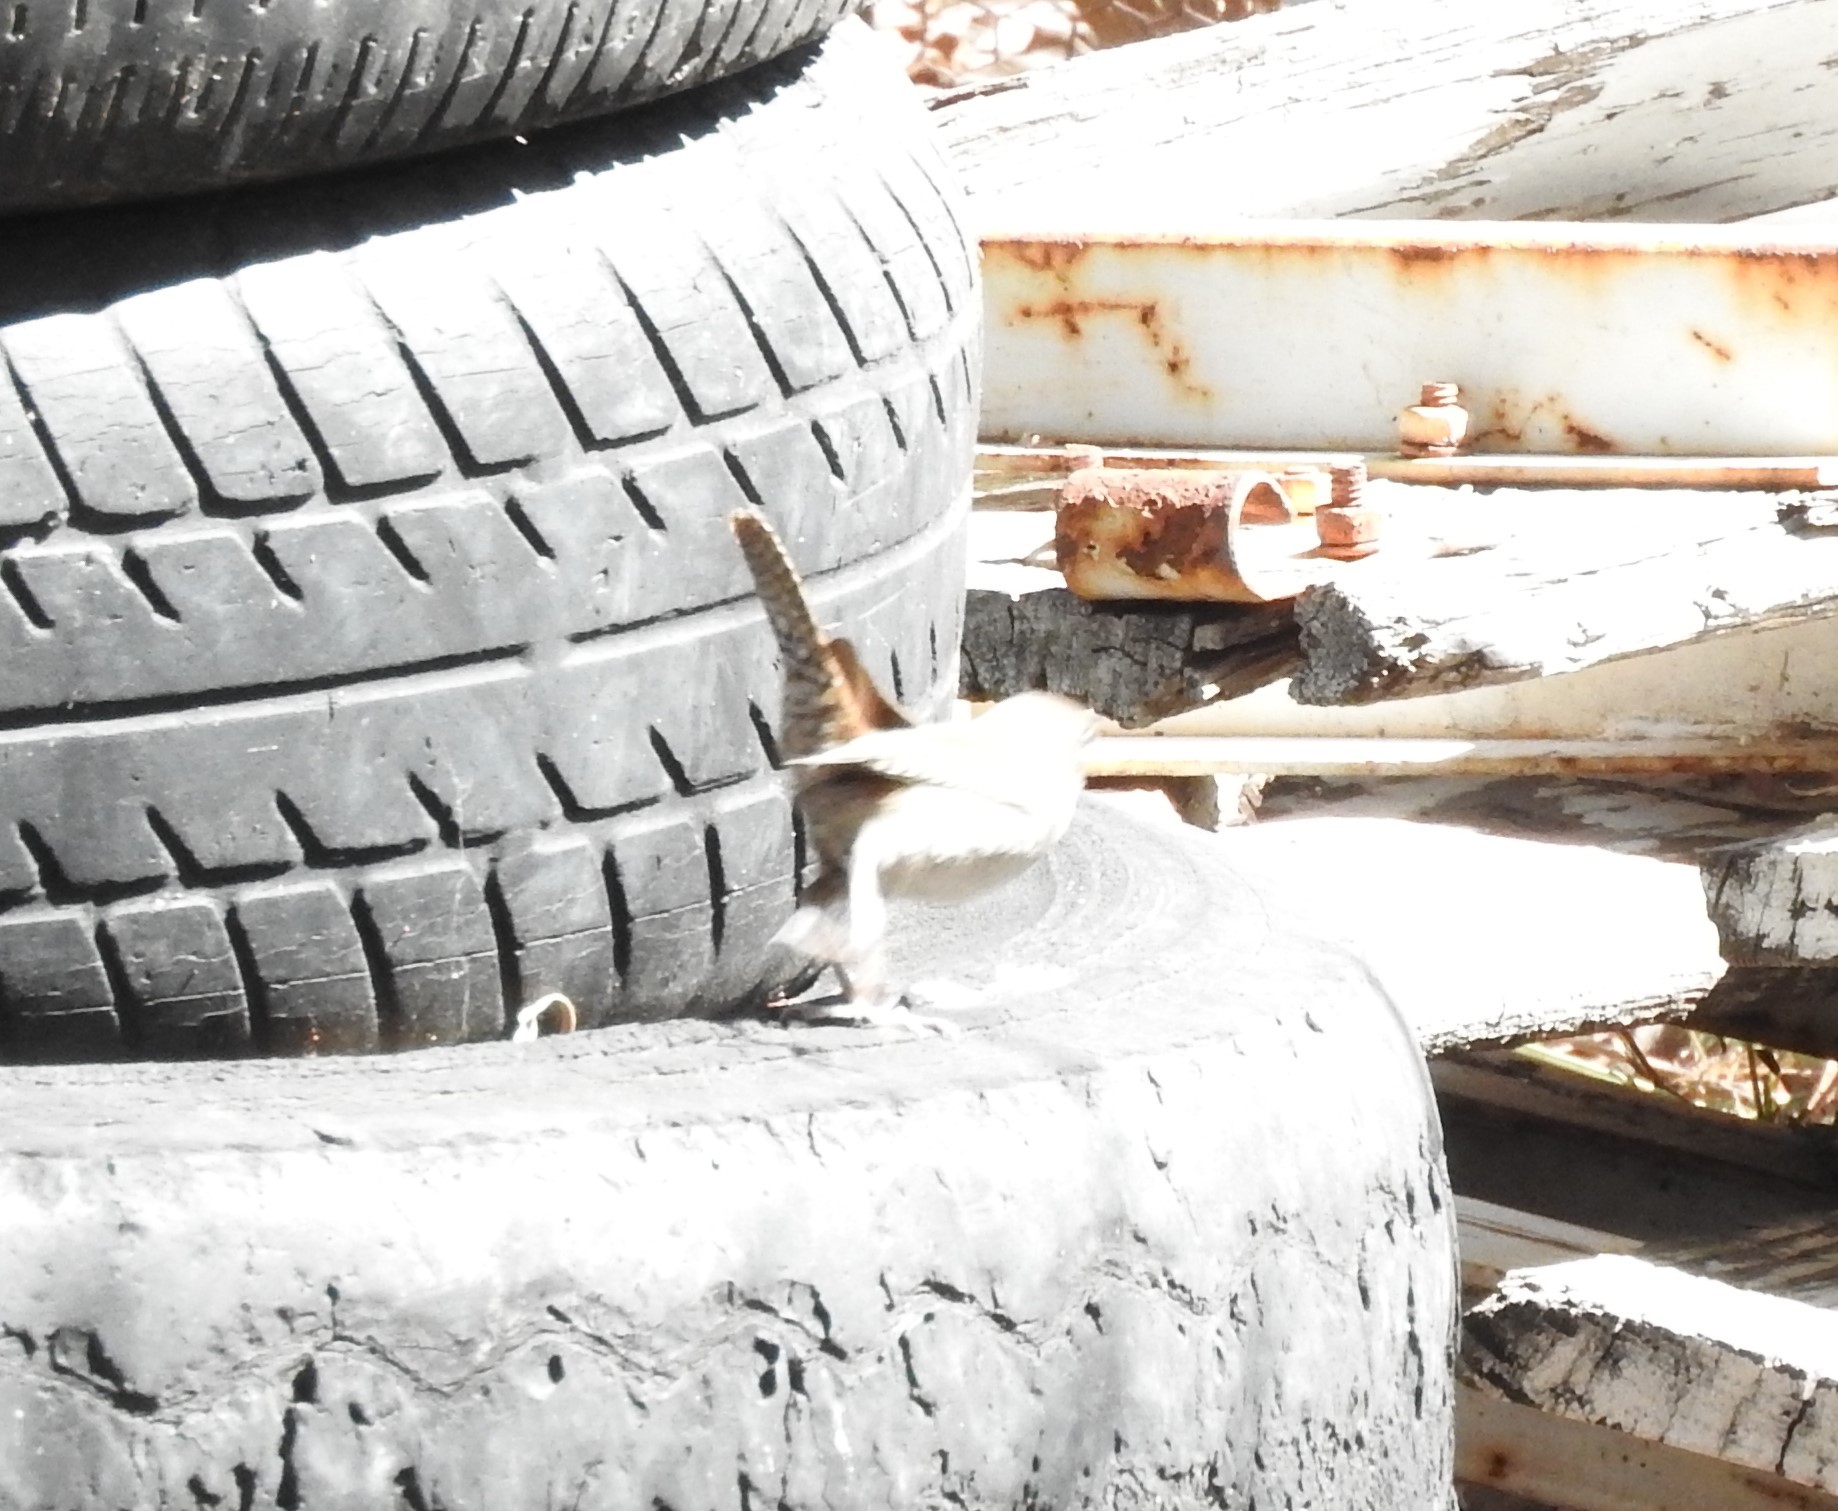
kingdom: Animalia
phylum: Chordata
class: Aves
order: Passeriformes
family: Troglodytidae
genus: Troglodytes
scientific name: Troglodytes aedon
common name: House wren
